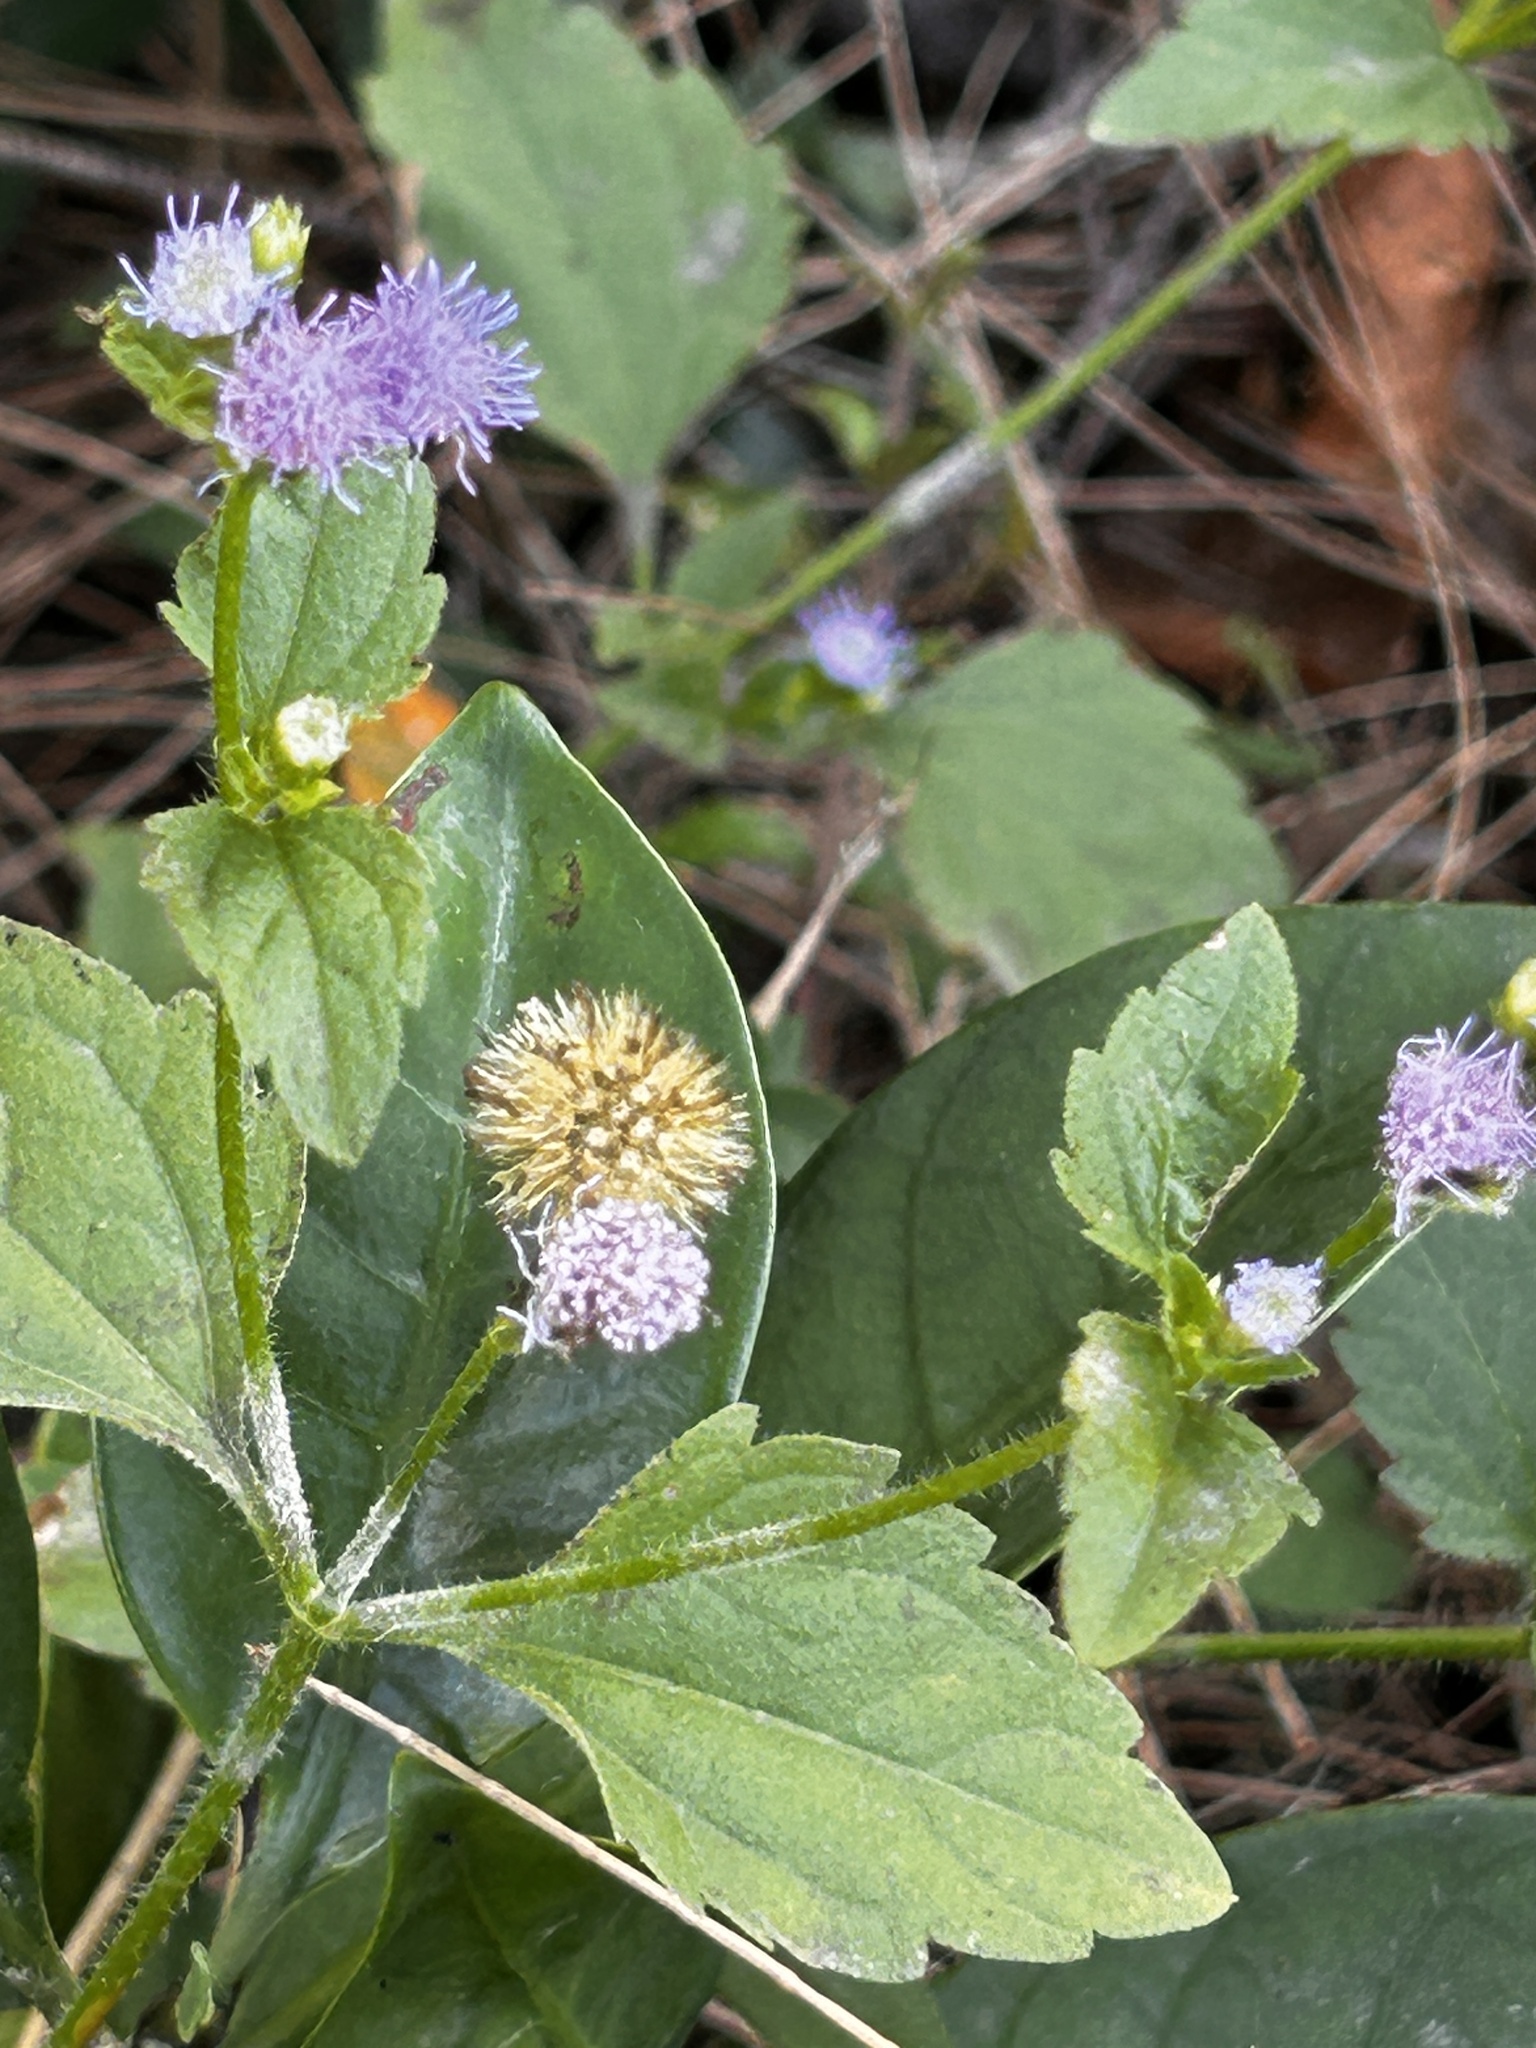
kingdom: Plantae
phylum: Tracheophyta
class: Magnoliopsida
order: Asterales
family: Asteraceae
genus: Praxelis
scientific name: Praxelis clematidea
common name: Praxelis
